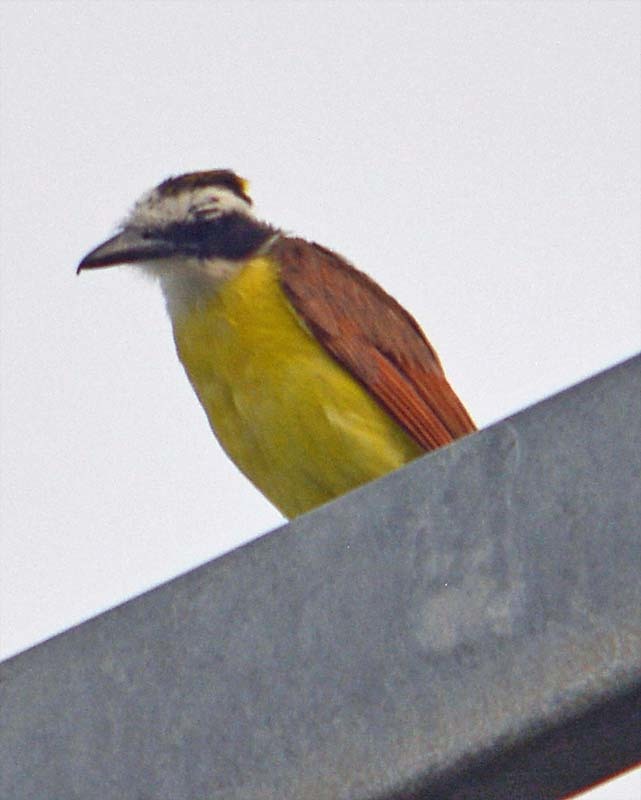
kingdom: Animalia
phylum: Chordata
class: Aves
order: Passeriformes
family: Tyrannidae
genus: Pitangus
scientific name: Pitangus sulphuratus
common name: Great kiskadee
